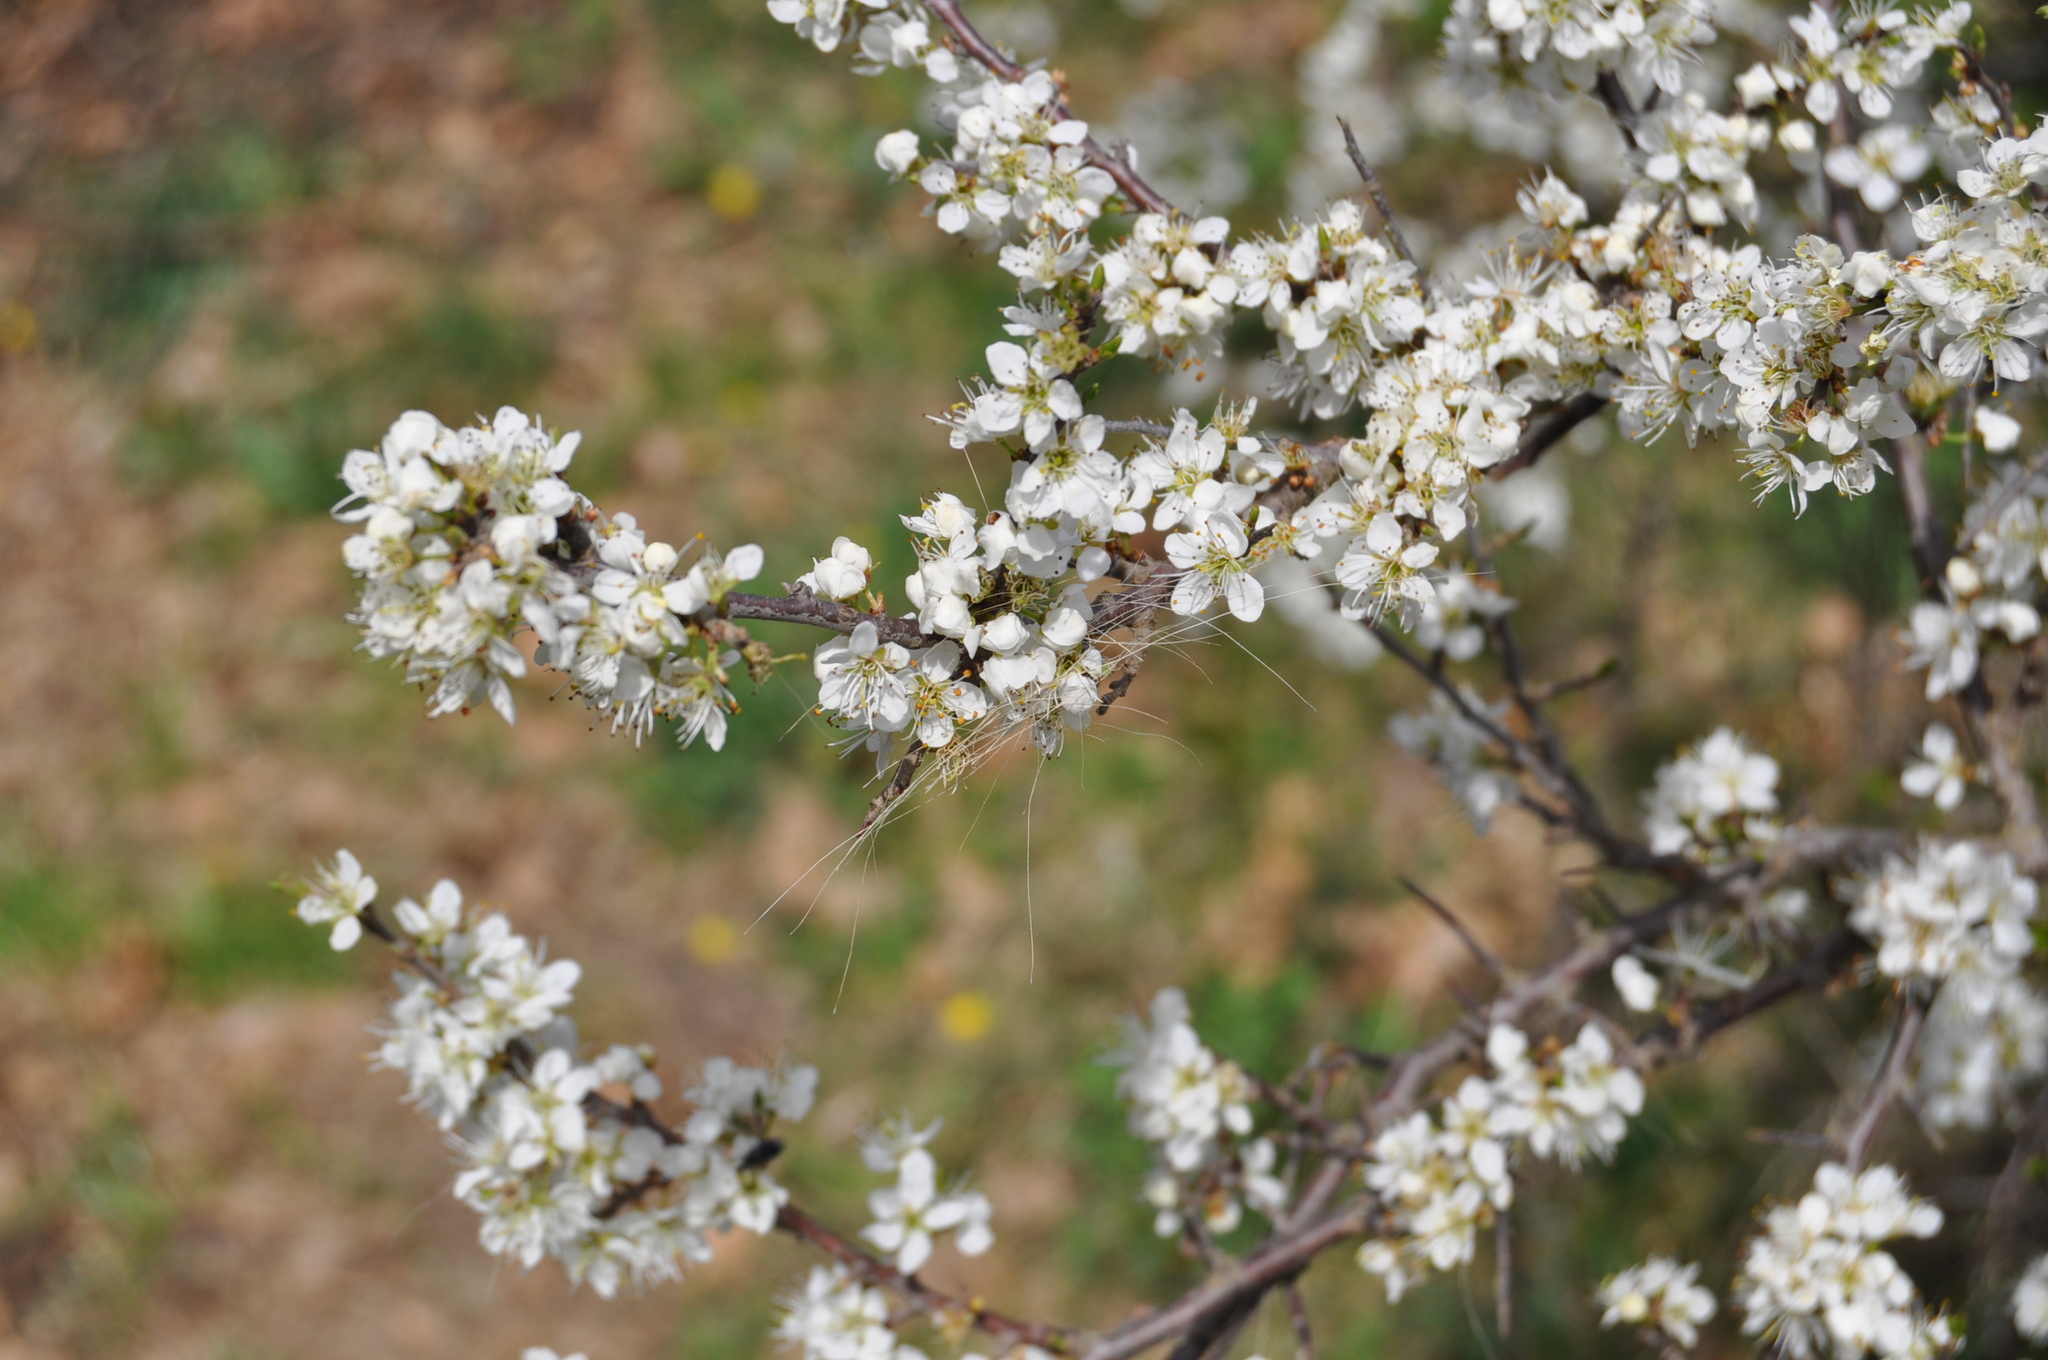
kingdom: Plantae
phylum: Tracheophyta
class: Magnoliopsida
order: Rosales
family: Rosaceae
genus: Prunus
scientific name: Prunus spinosa
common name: Blackthorn
